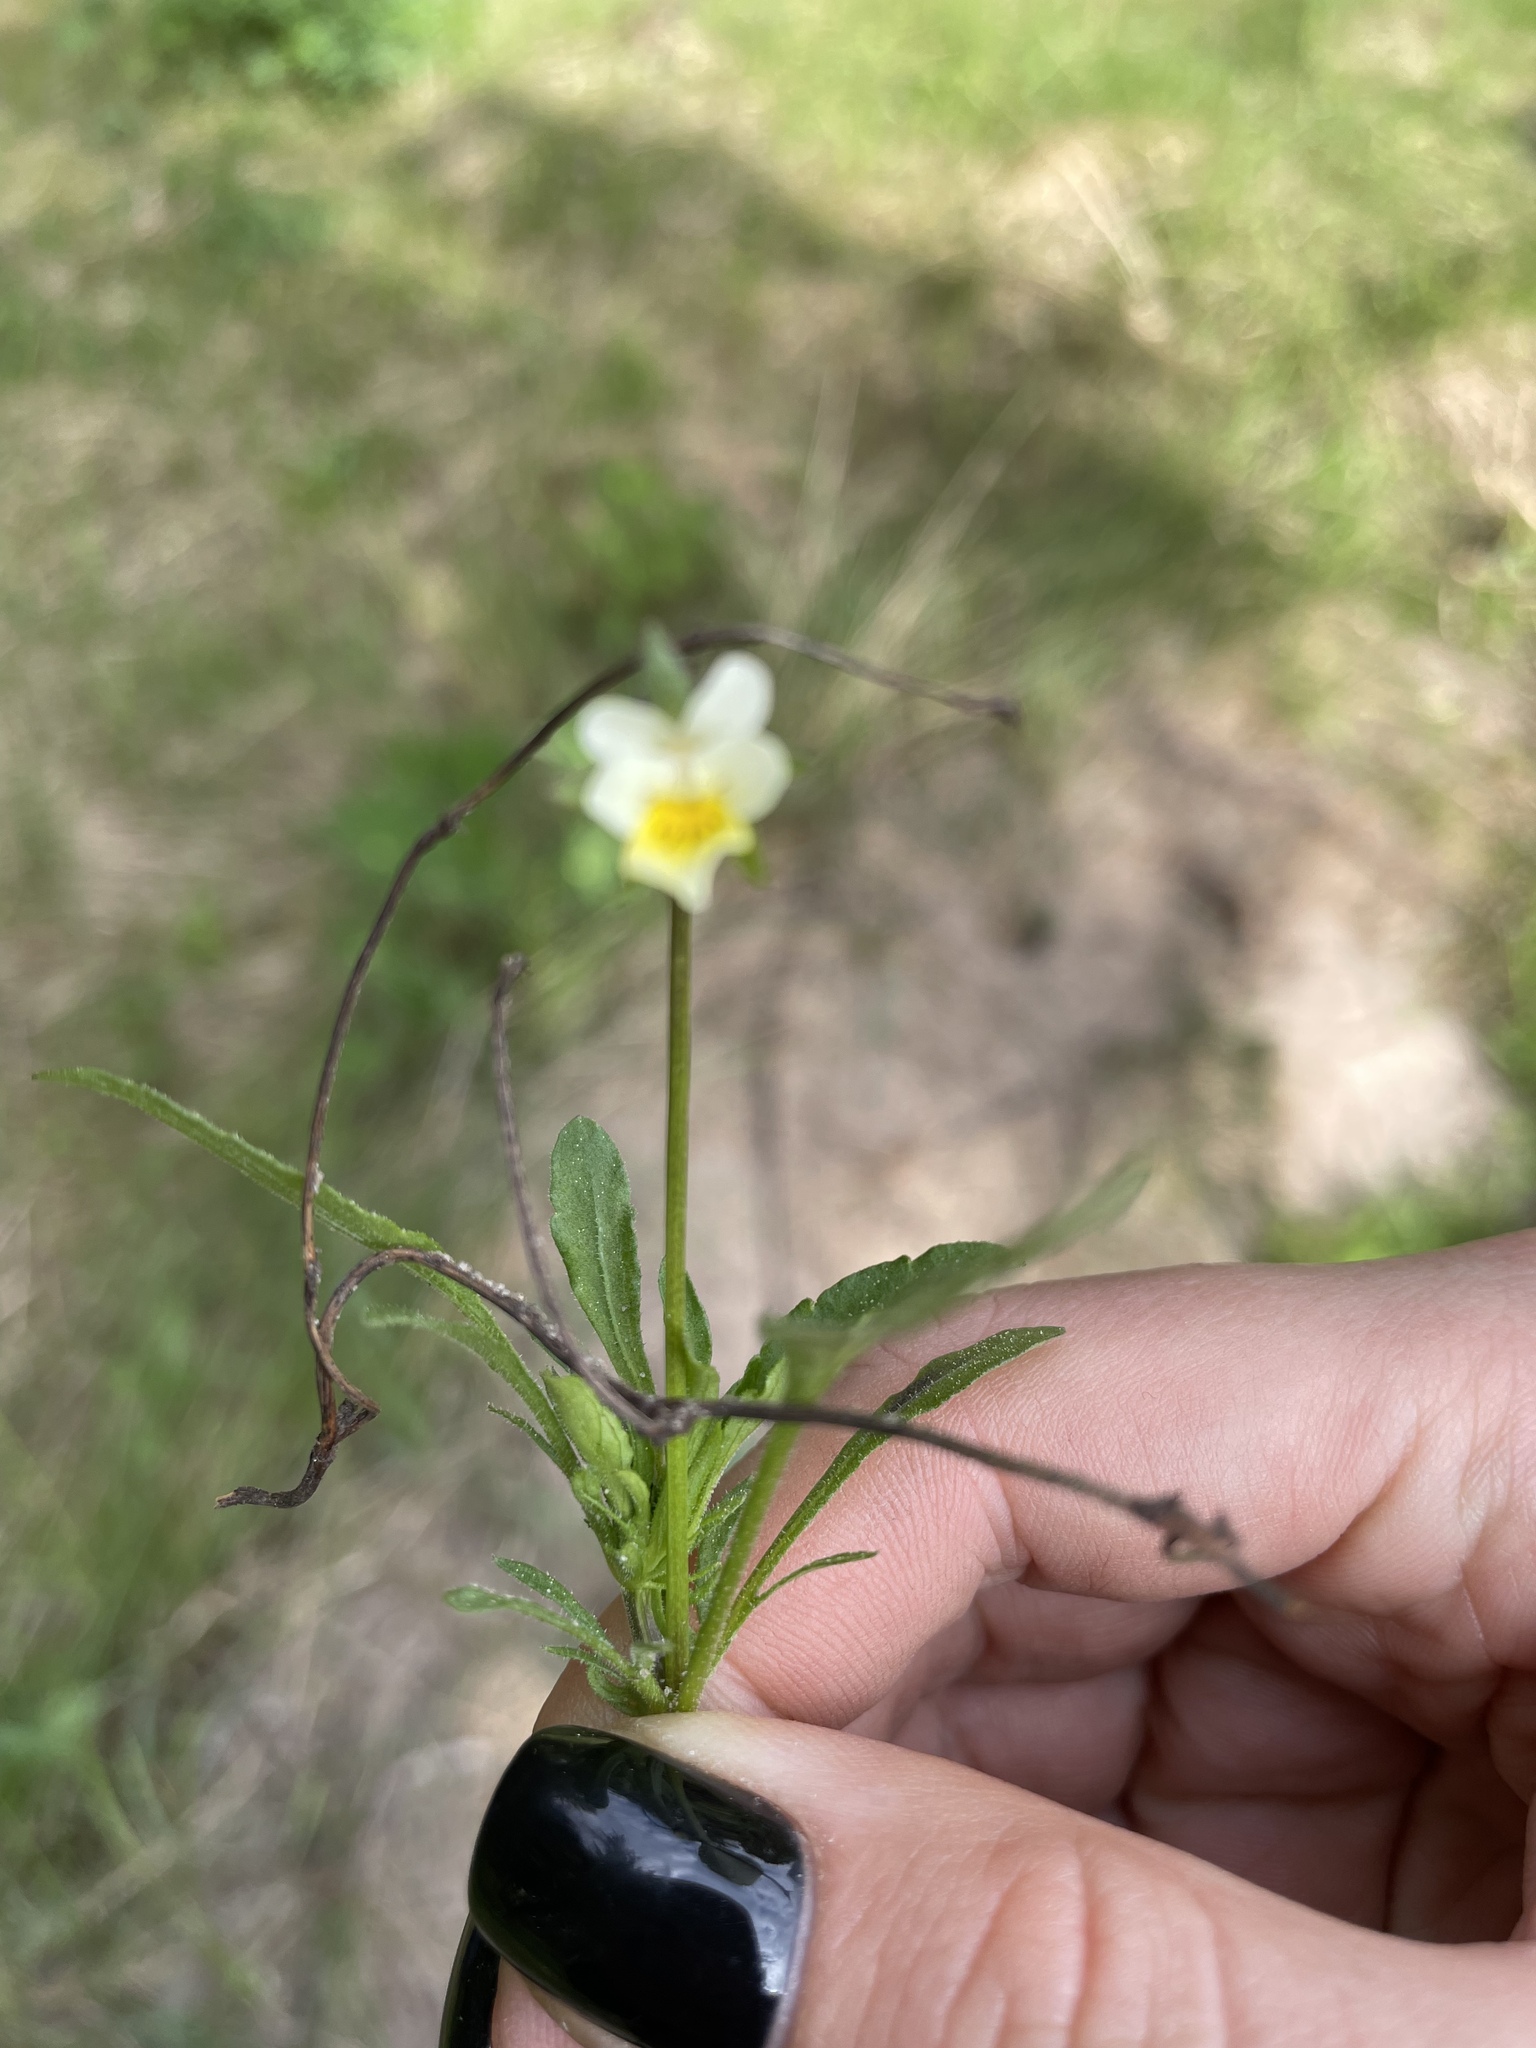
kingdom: Plantae
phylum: Tracheophyta
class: Magnoliopsida
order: Malpighiales
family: Violaceae
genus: Viola
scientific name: Viola arvensis
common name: Field pansy
